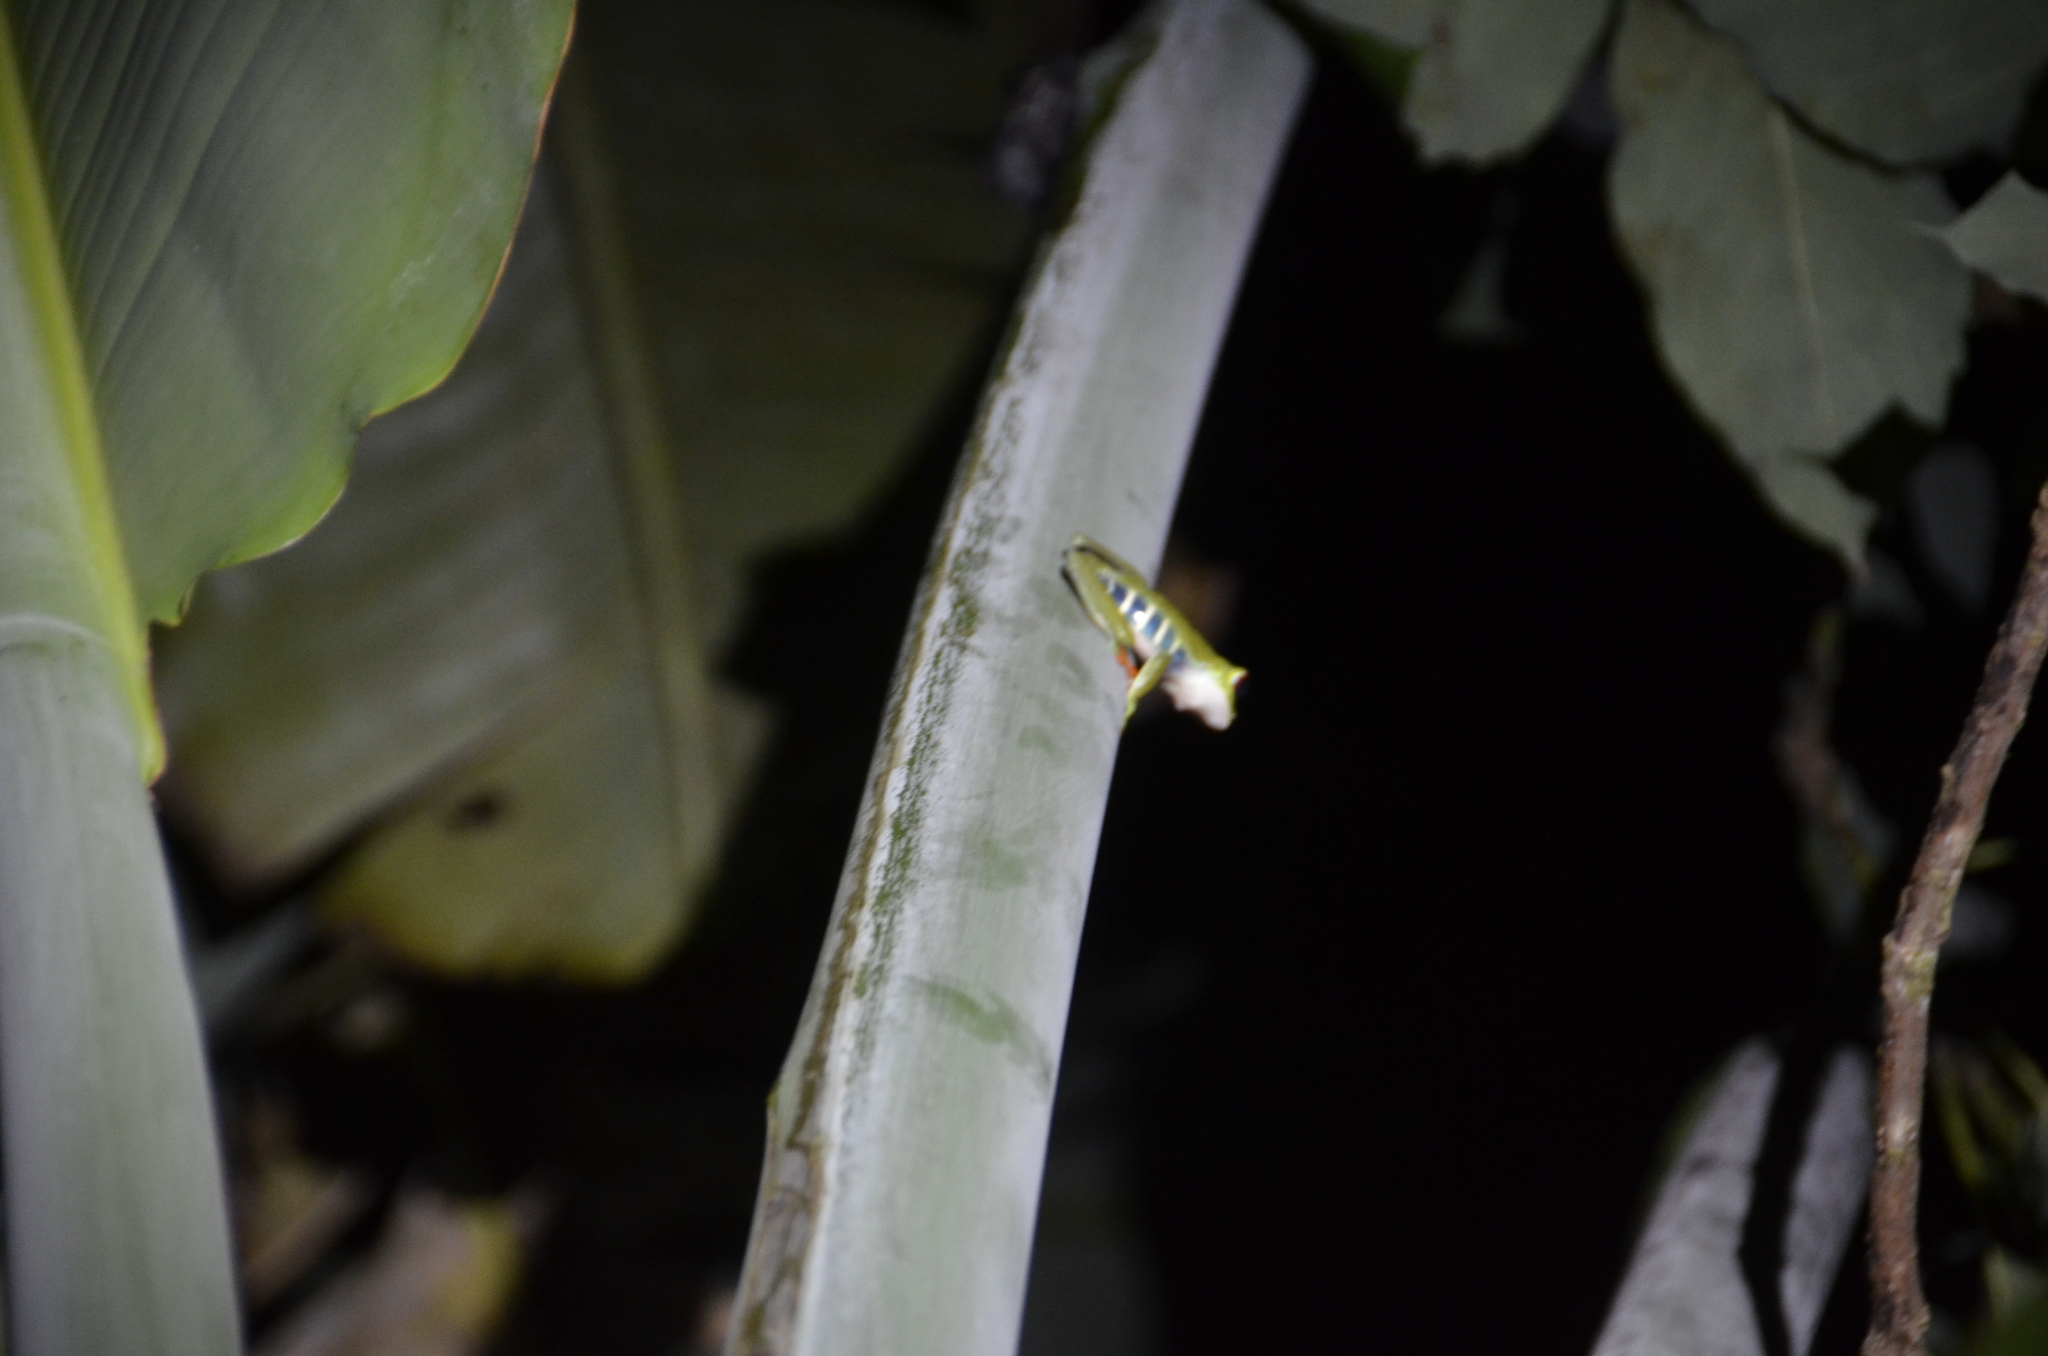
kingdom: Animalia
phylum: Chordata
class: Amphibia
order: Anura
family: Phyllomedusidae
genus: Agalychnis
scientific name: Agalychnis callidryas
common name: Red-eyed treefrog
